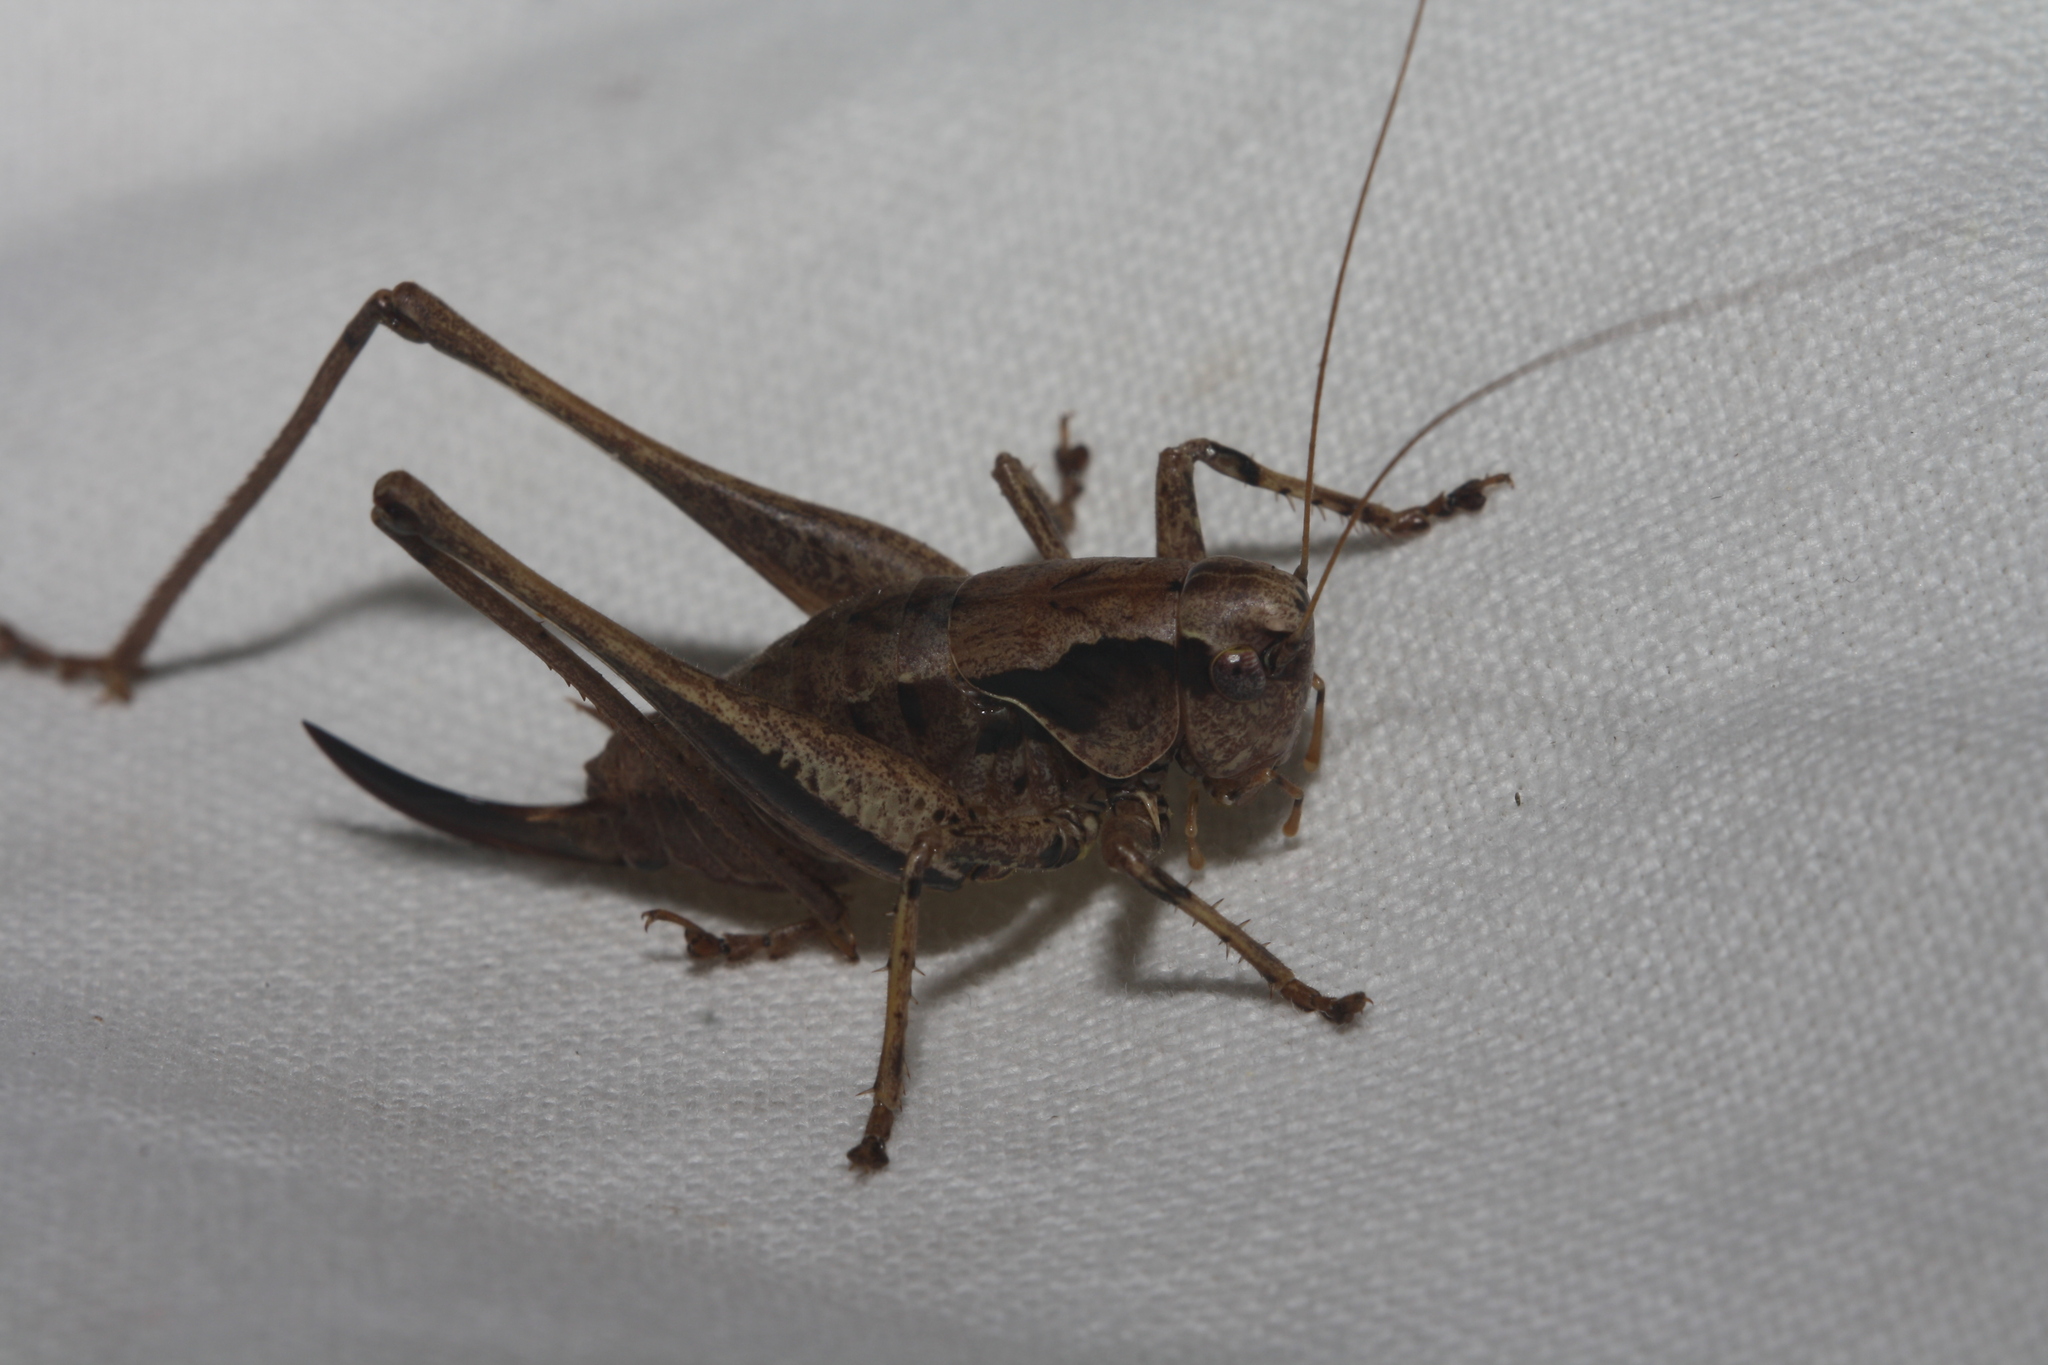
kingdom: Animalia
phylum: Arthropoda
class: Insecta
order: Orthoptera
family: Tettigoniidae
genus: Pholidoptera
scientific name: Pholidoptera griseoaptera
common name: Dark bush-cricket
